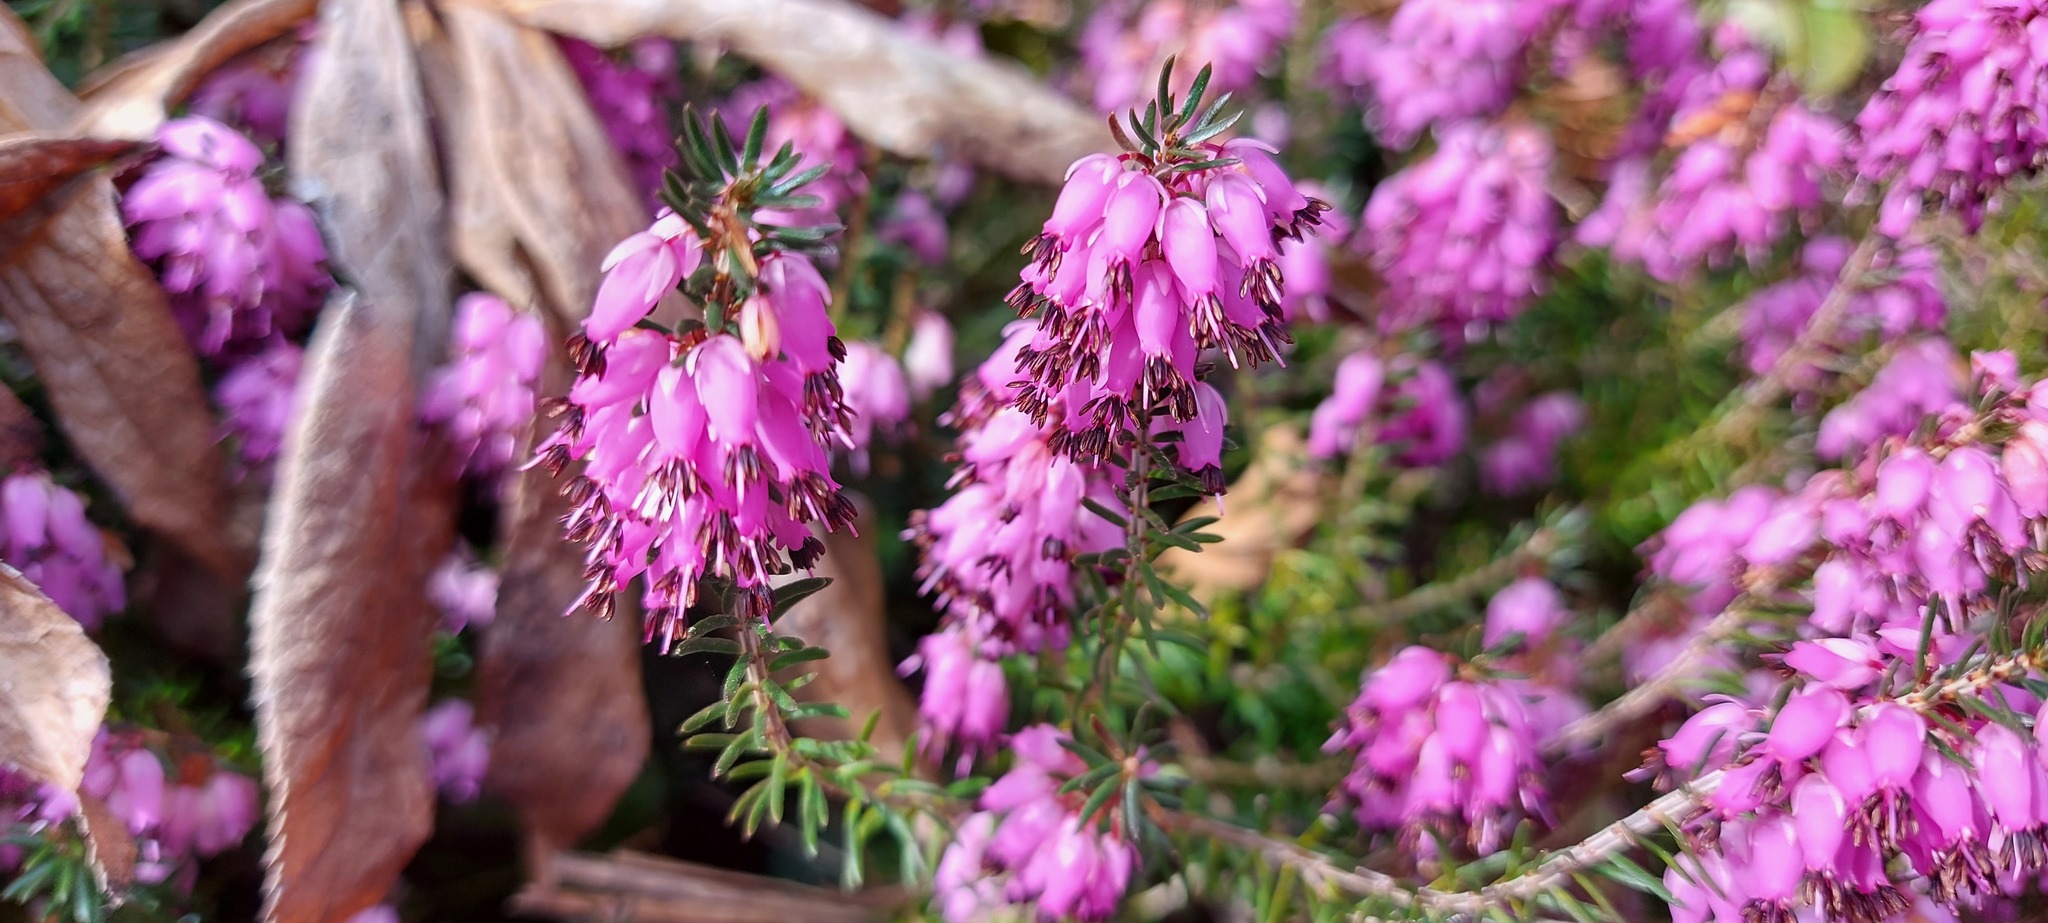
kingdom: Plantae
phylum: Tracheophyta
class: Magnoliopsida
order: Ericales
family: Ericaceae
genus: Erica
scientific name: Erica carnea
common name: Winter heath
